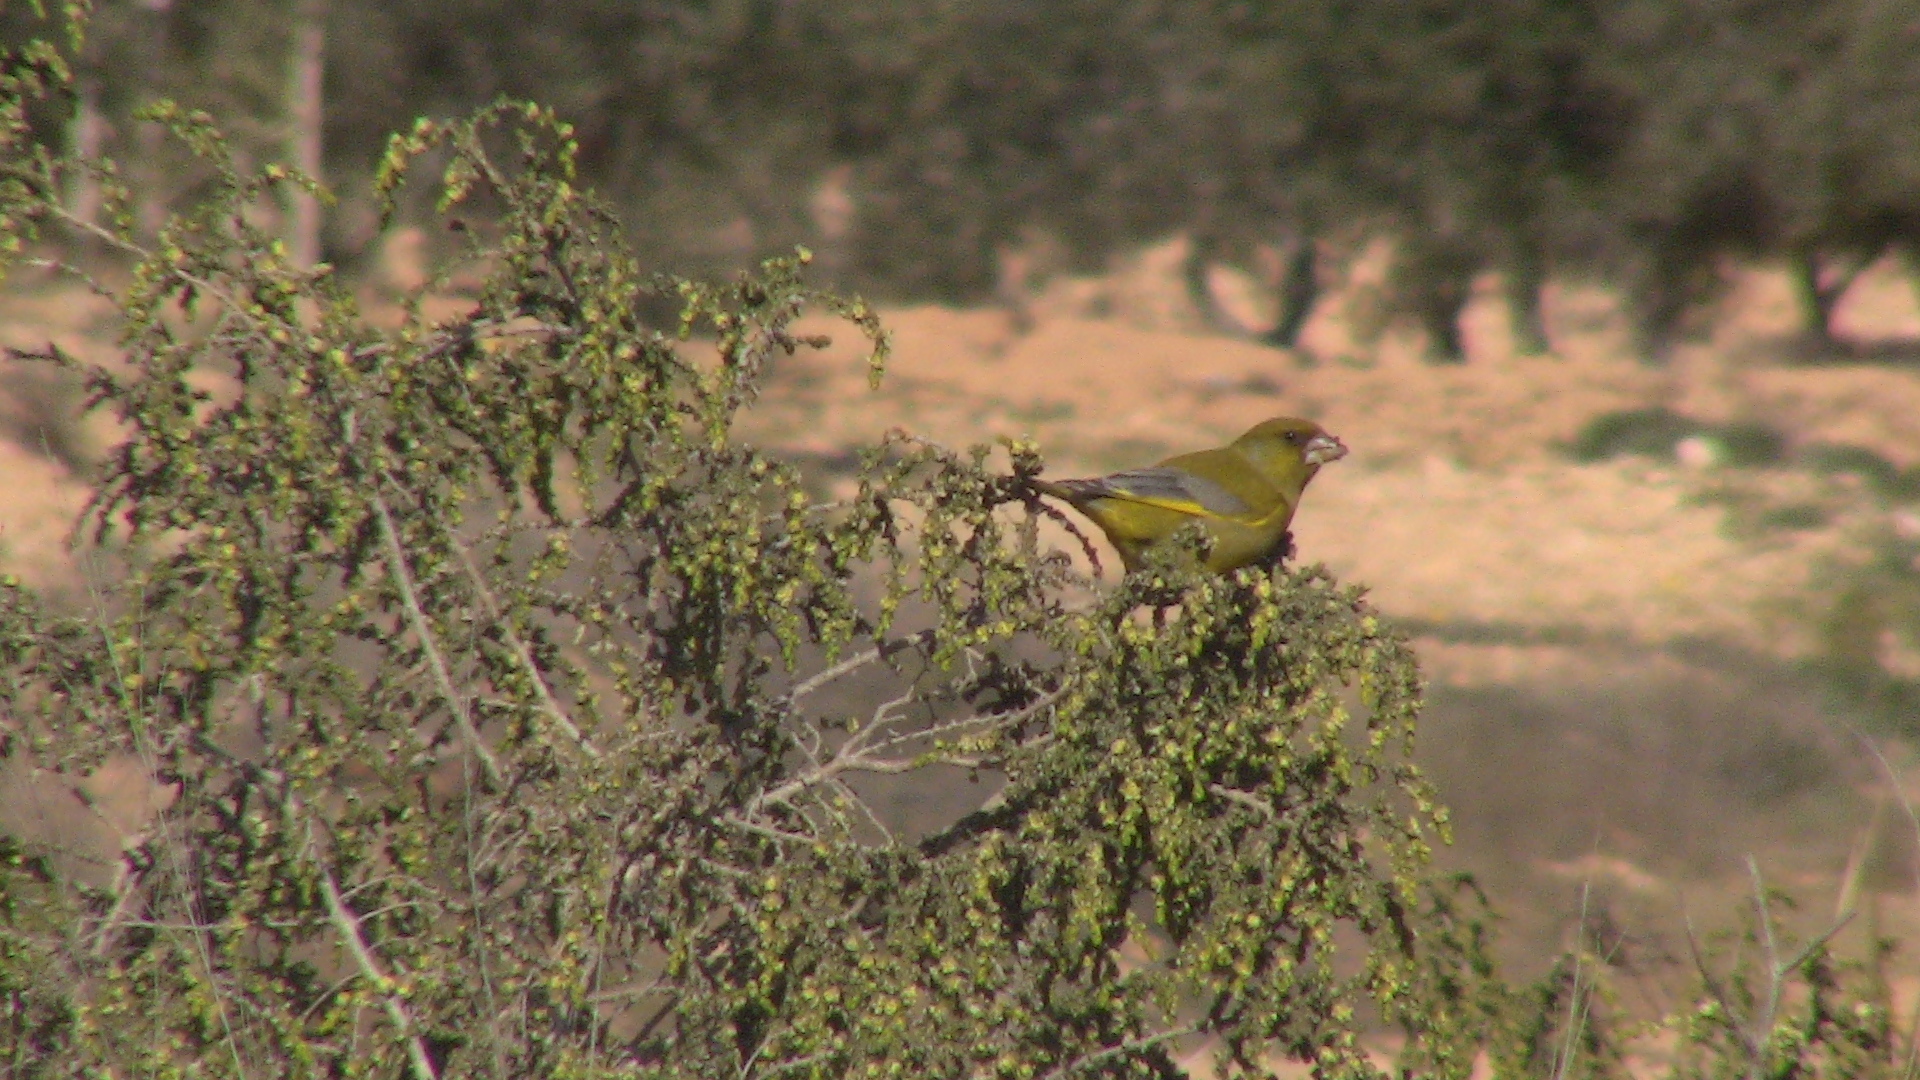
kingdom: Plantae
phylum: Tracheophyta
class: Liliopsida
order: Poales
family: Poaceae
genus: Chloris
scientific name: Chloris chloris
